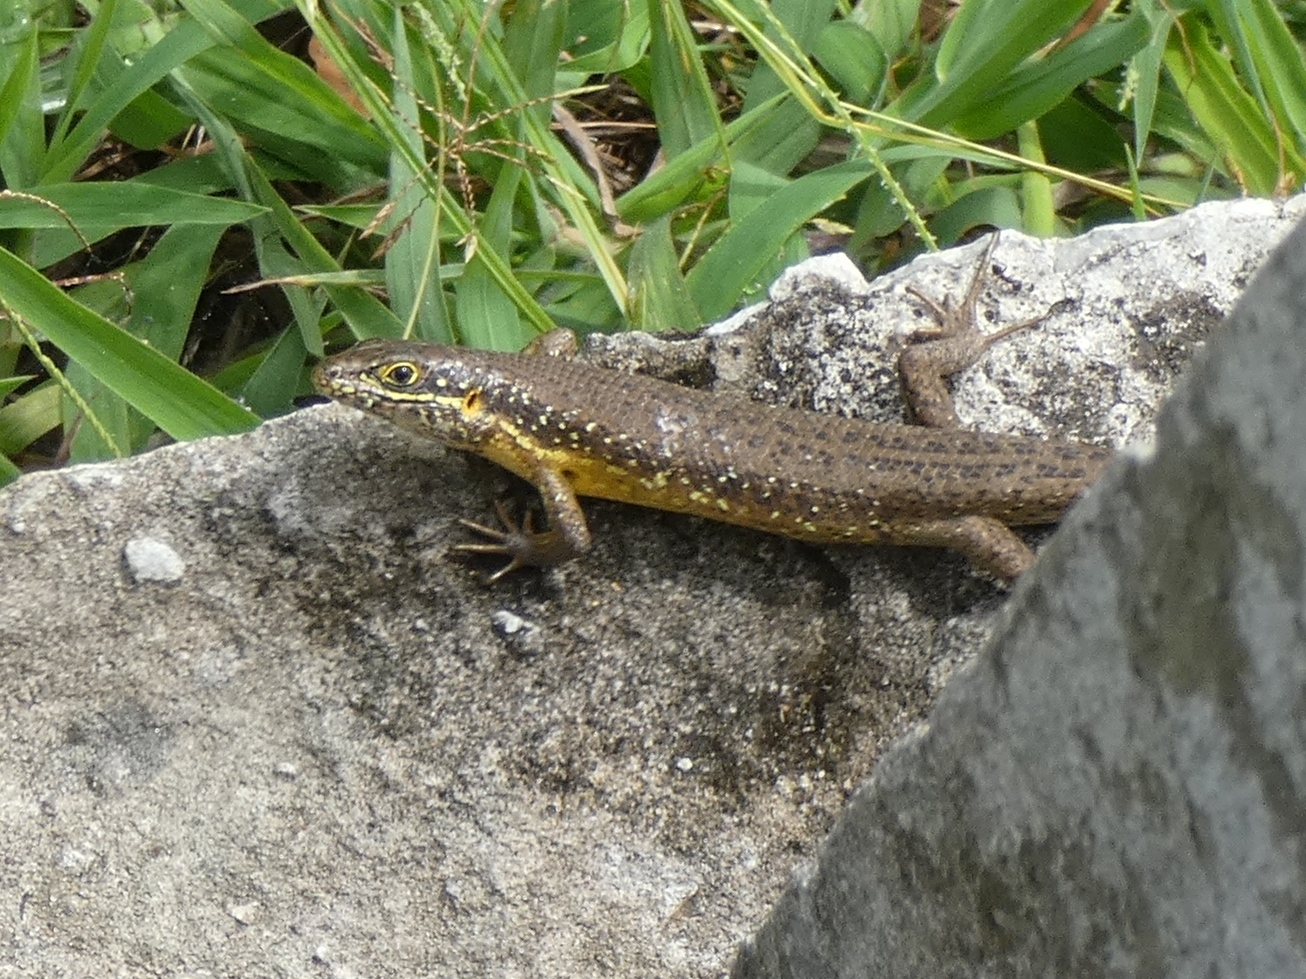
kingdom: Animalia
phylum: Chordata
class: Squamata
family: Scincidae
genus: Trachylepis
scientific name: Trachylepis maculilabris
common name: Speckle-lipped mabuya
